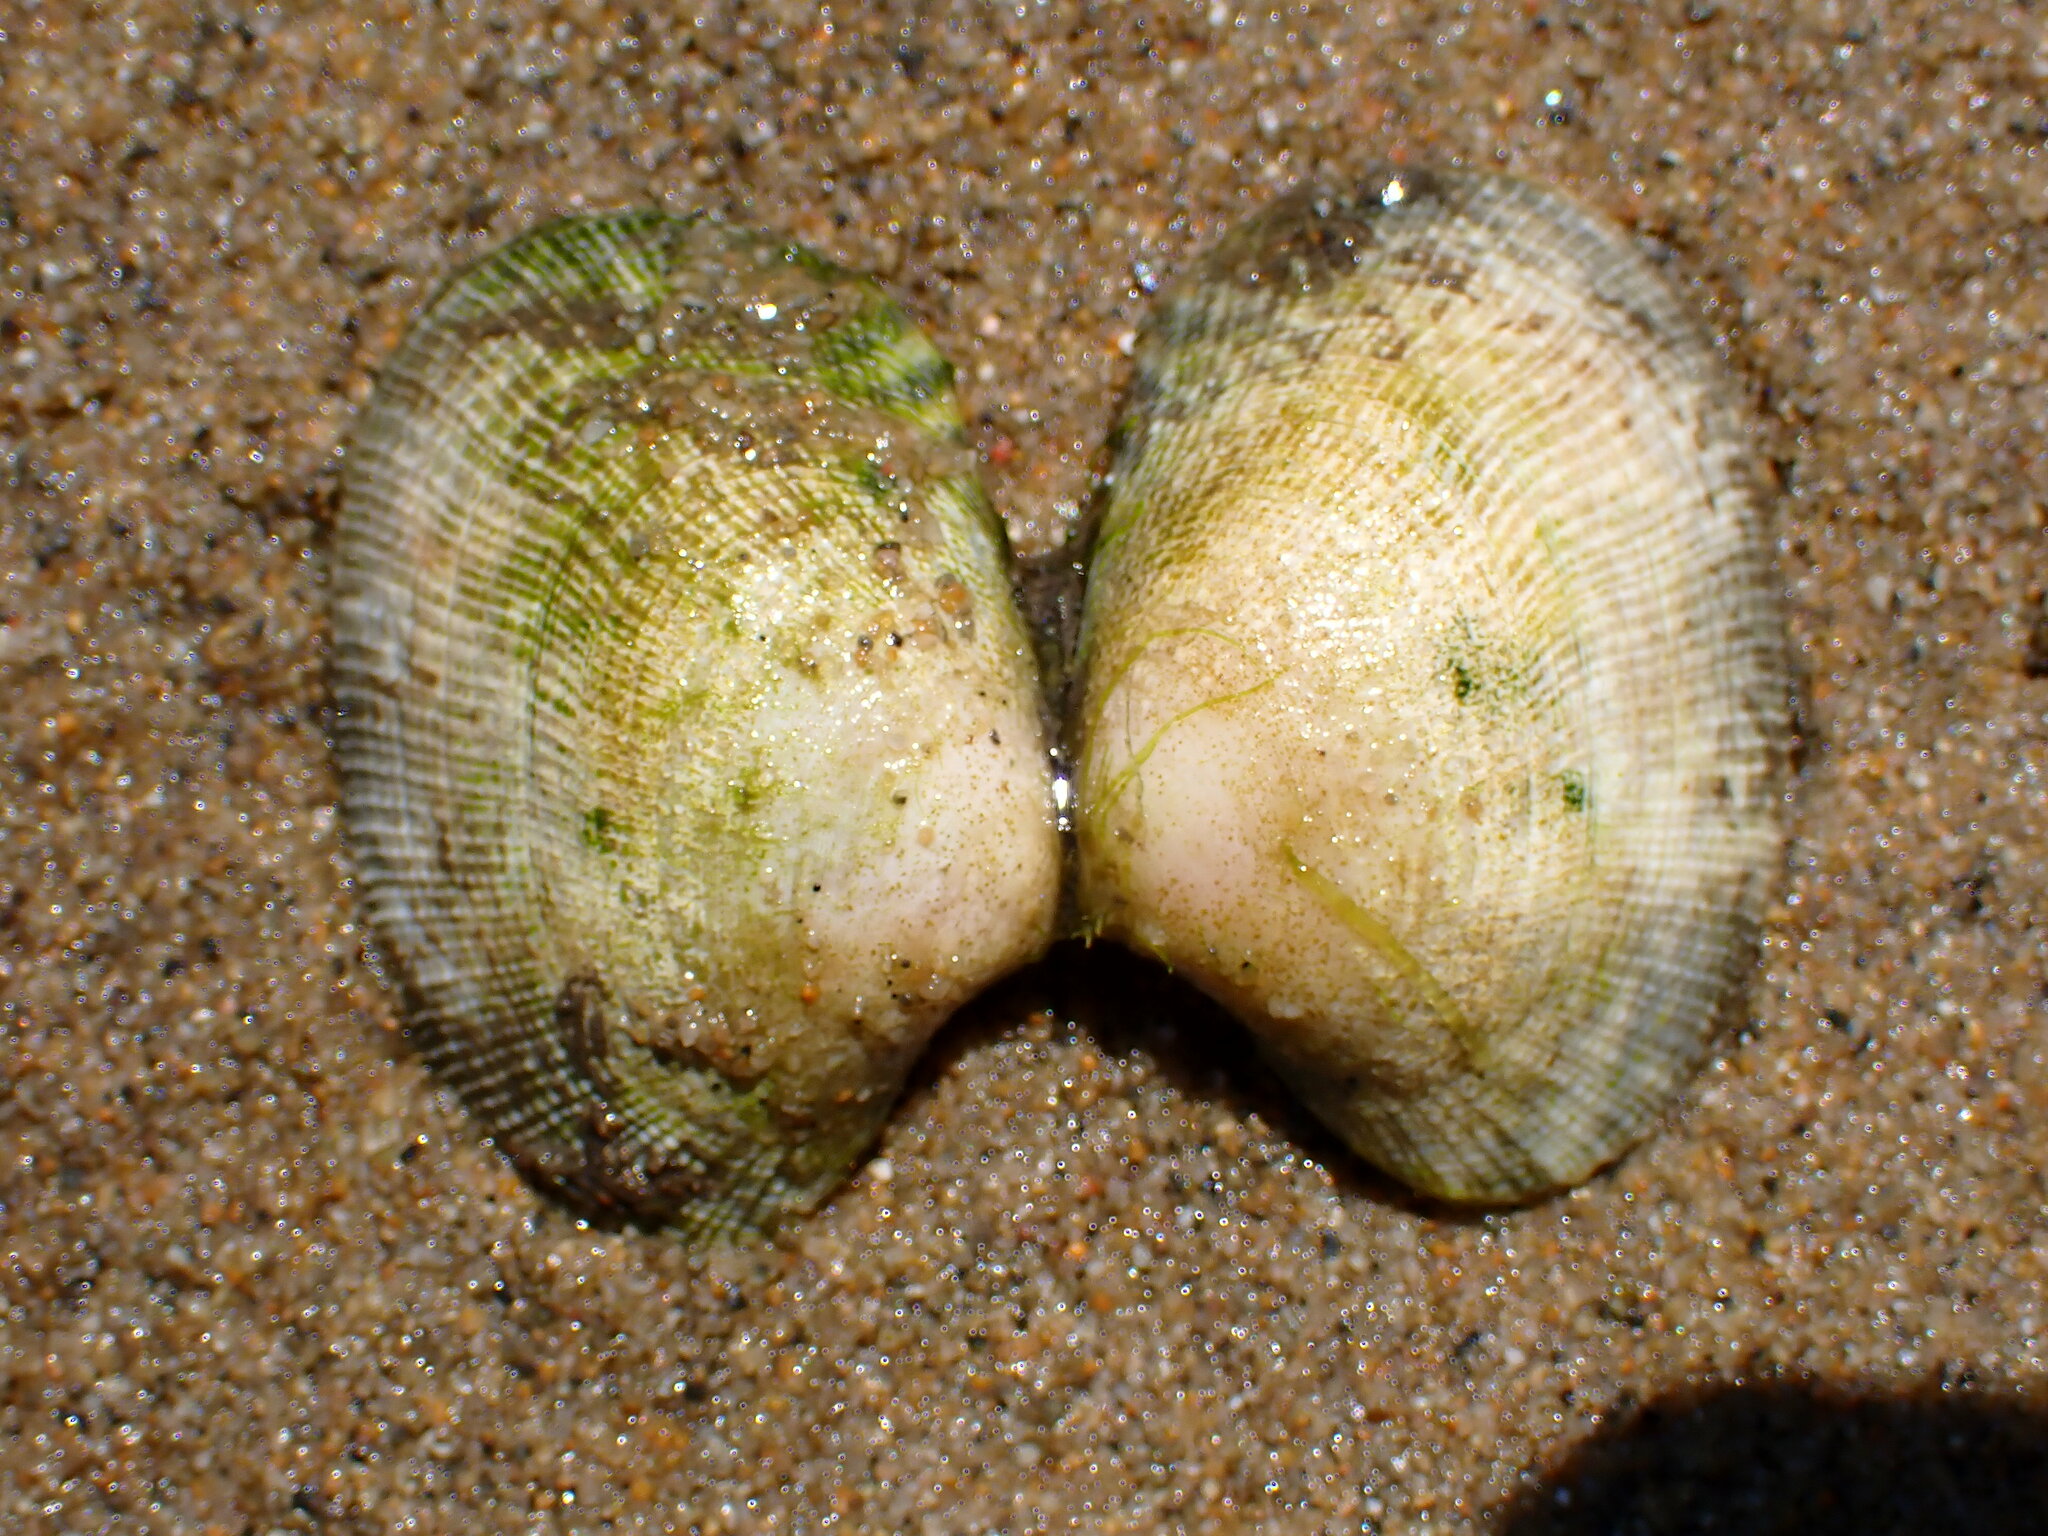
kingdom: Animalia
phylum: Mollusca
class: Bivalvia
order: Venerida
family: Veneridae
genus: Ruditapes
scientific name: Ruditapes philippinarum
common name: Manila clam
